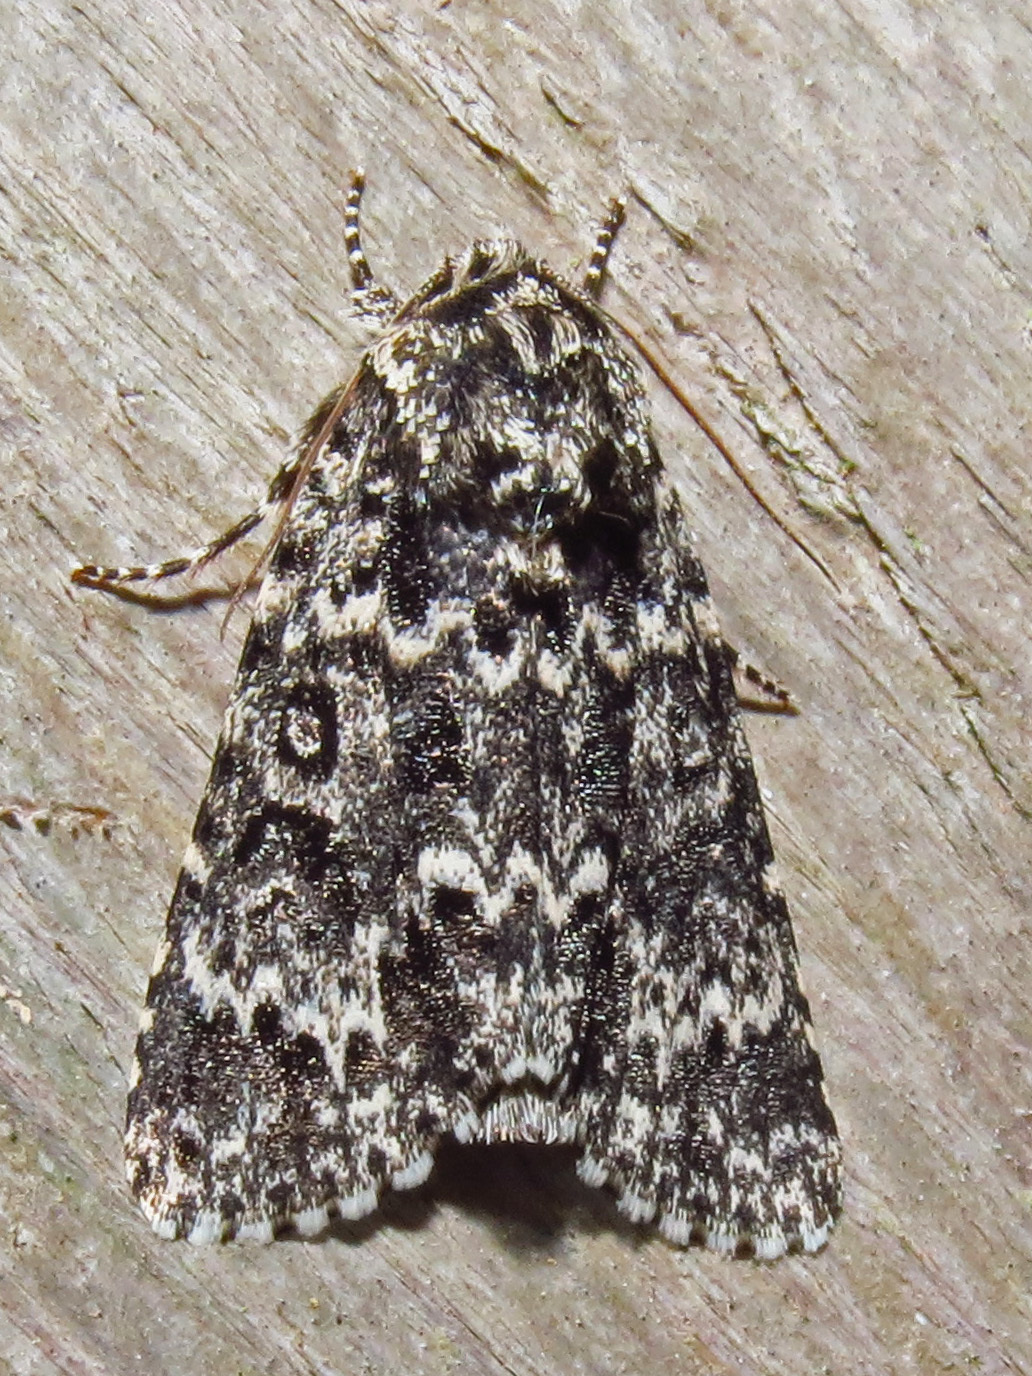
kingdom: Animalia
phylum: Arthropoda
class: Insecta
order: Lepidoptera
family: Noctuidae
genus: Acronicta
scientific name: Acronicta fragilis
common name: Fragile dagger
